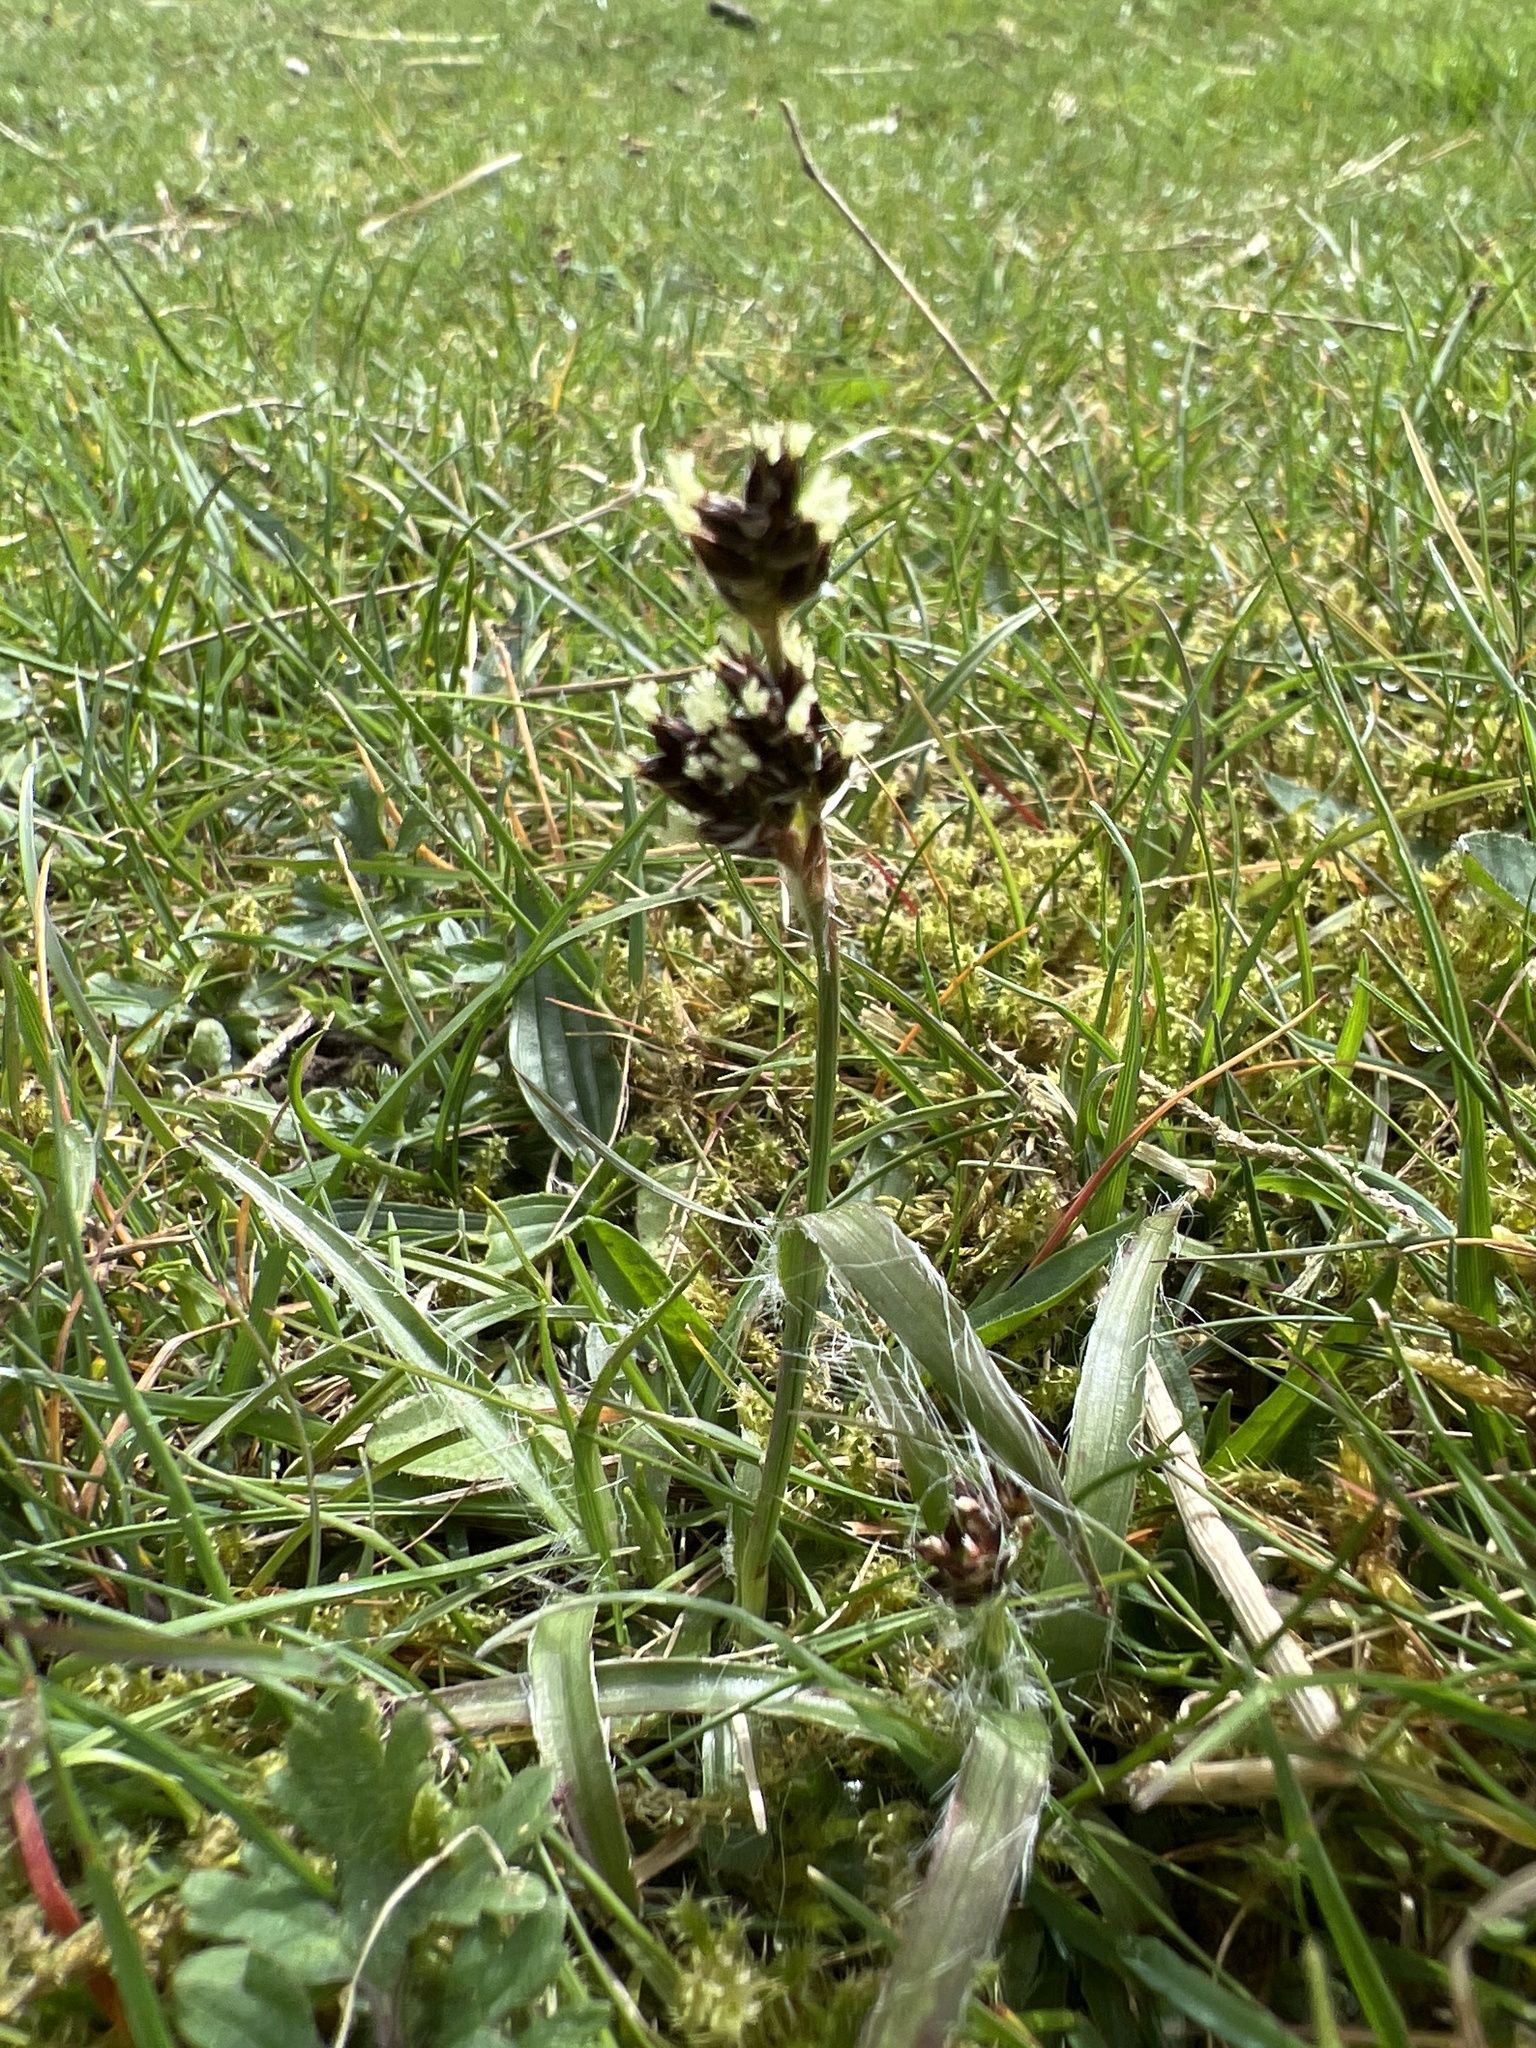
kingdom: Plantae
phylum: Tracheophyta
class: Liliopsida
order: Poales
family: Juncaceae
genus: Luzula
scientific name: Luzula campestris
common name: Field wood-rush
